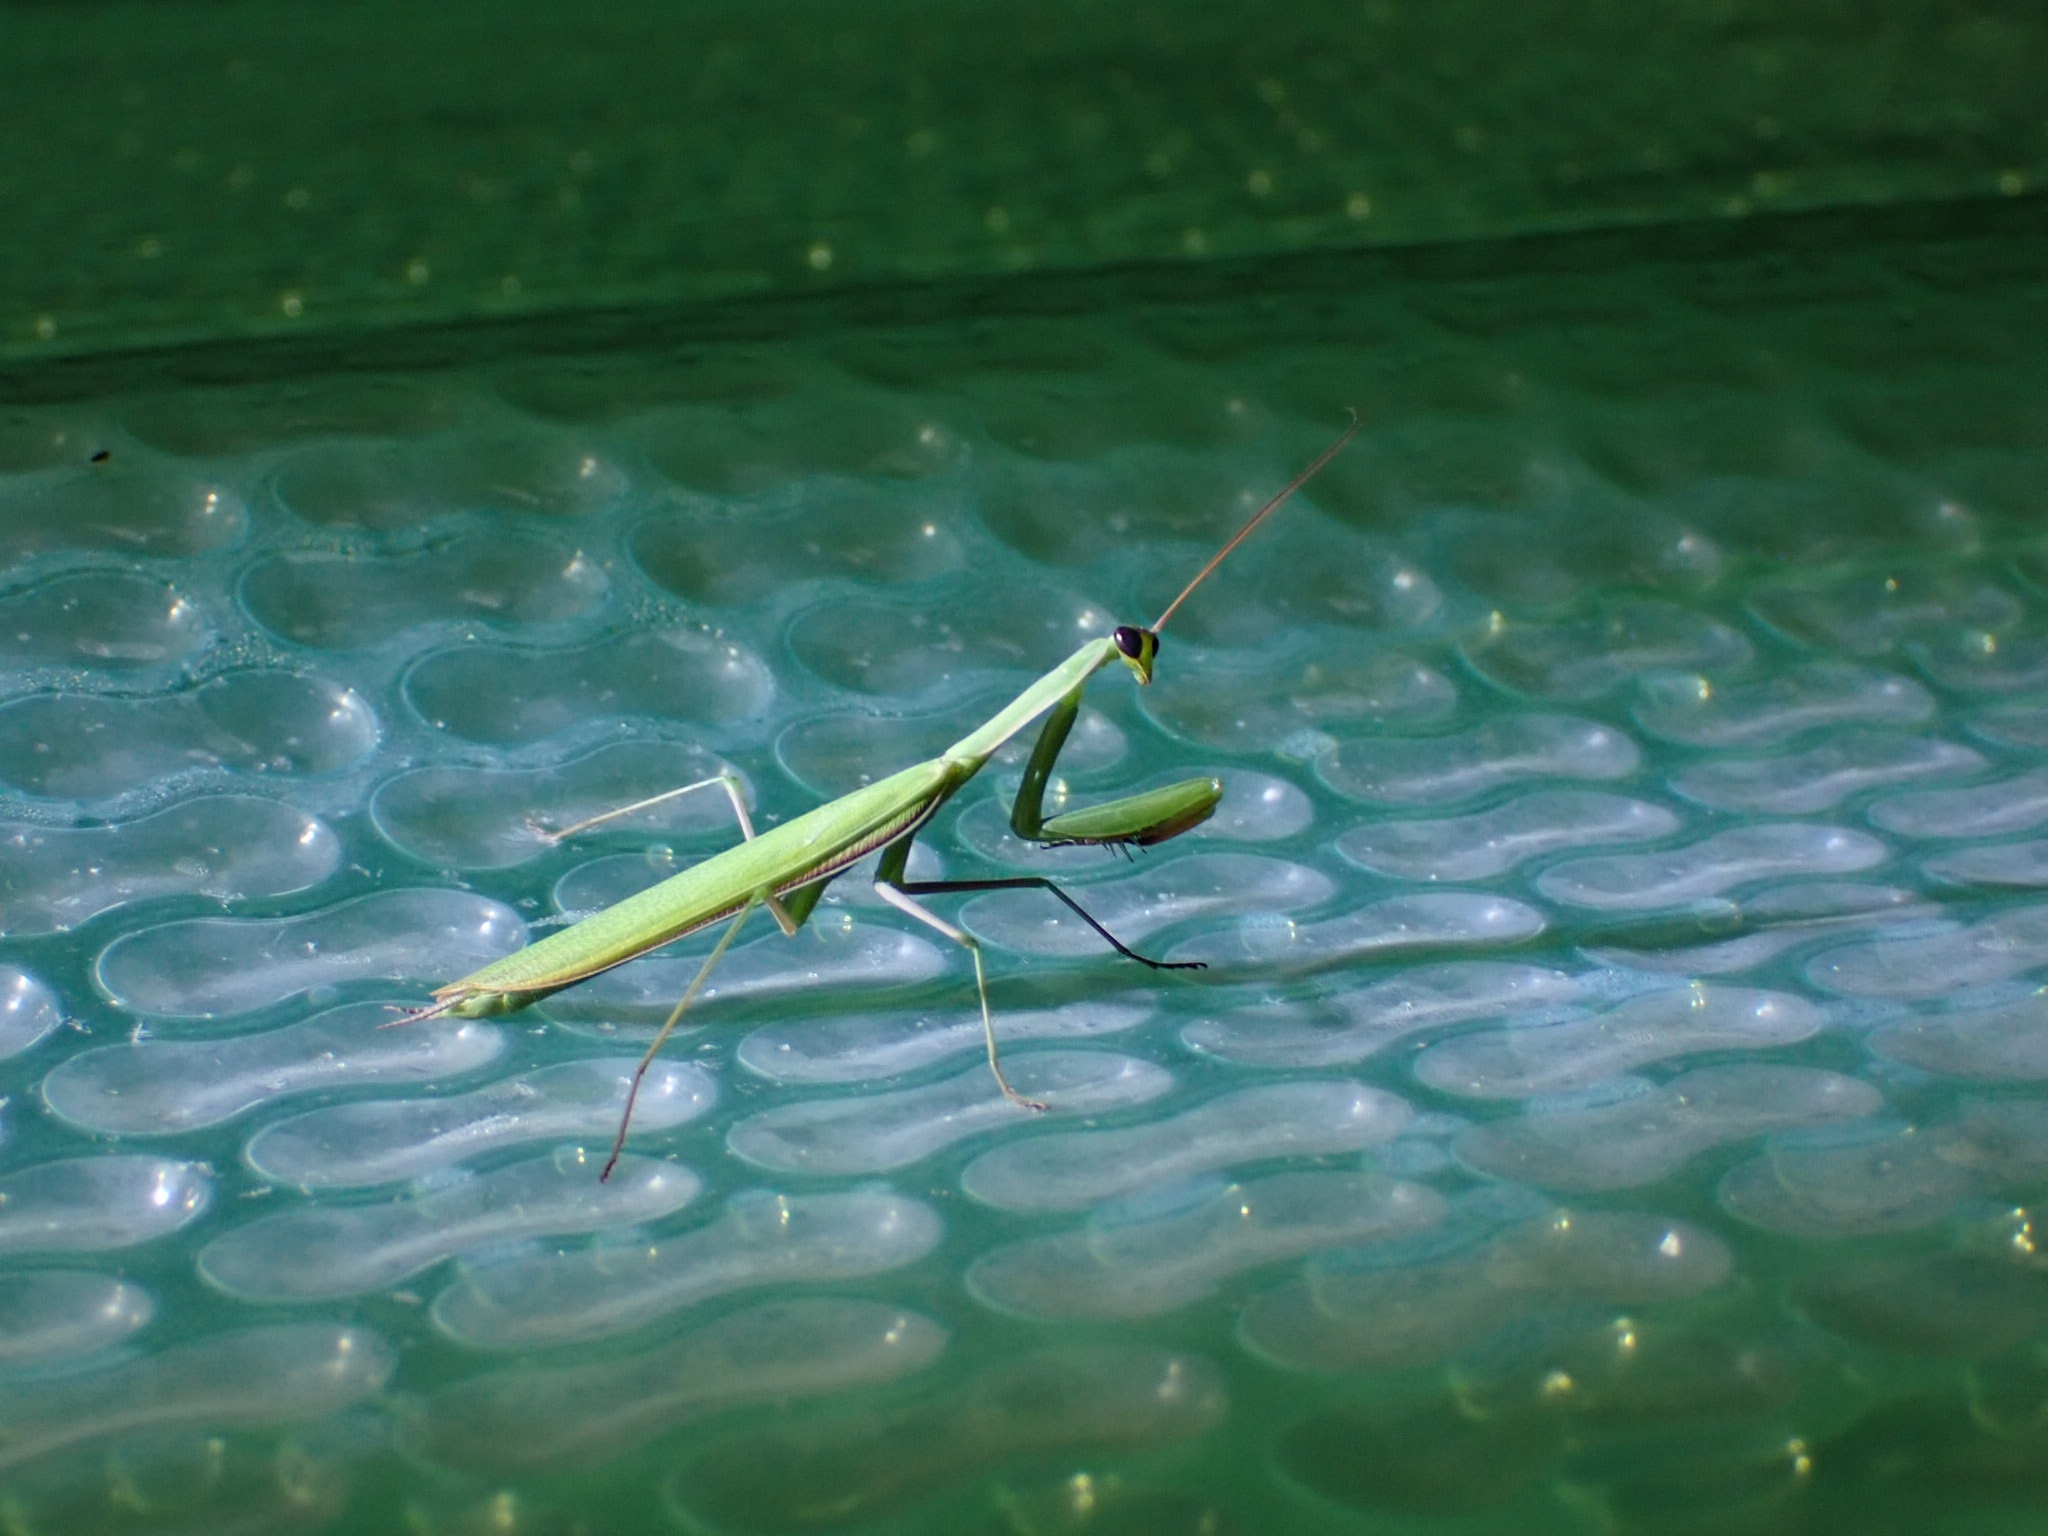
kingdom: Animalia
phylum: Arthropoda
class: Insecta
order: Mantodea
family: Mantidae
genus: Mantis
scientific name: Mantis religiosa
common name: Praying mantis
